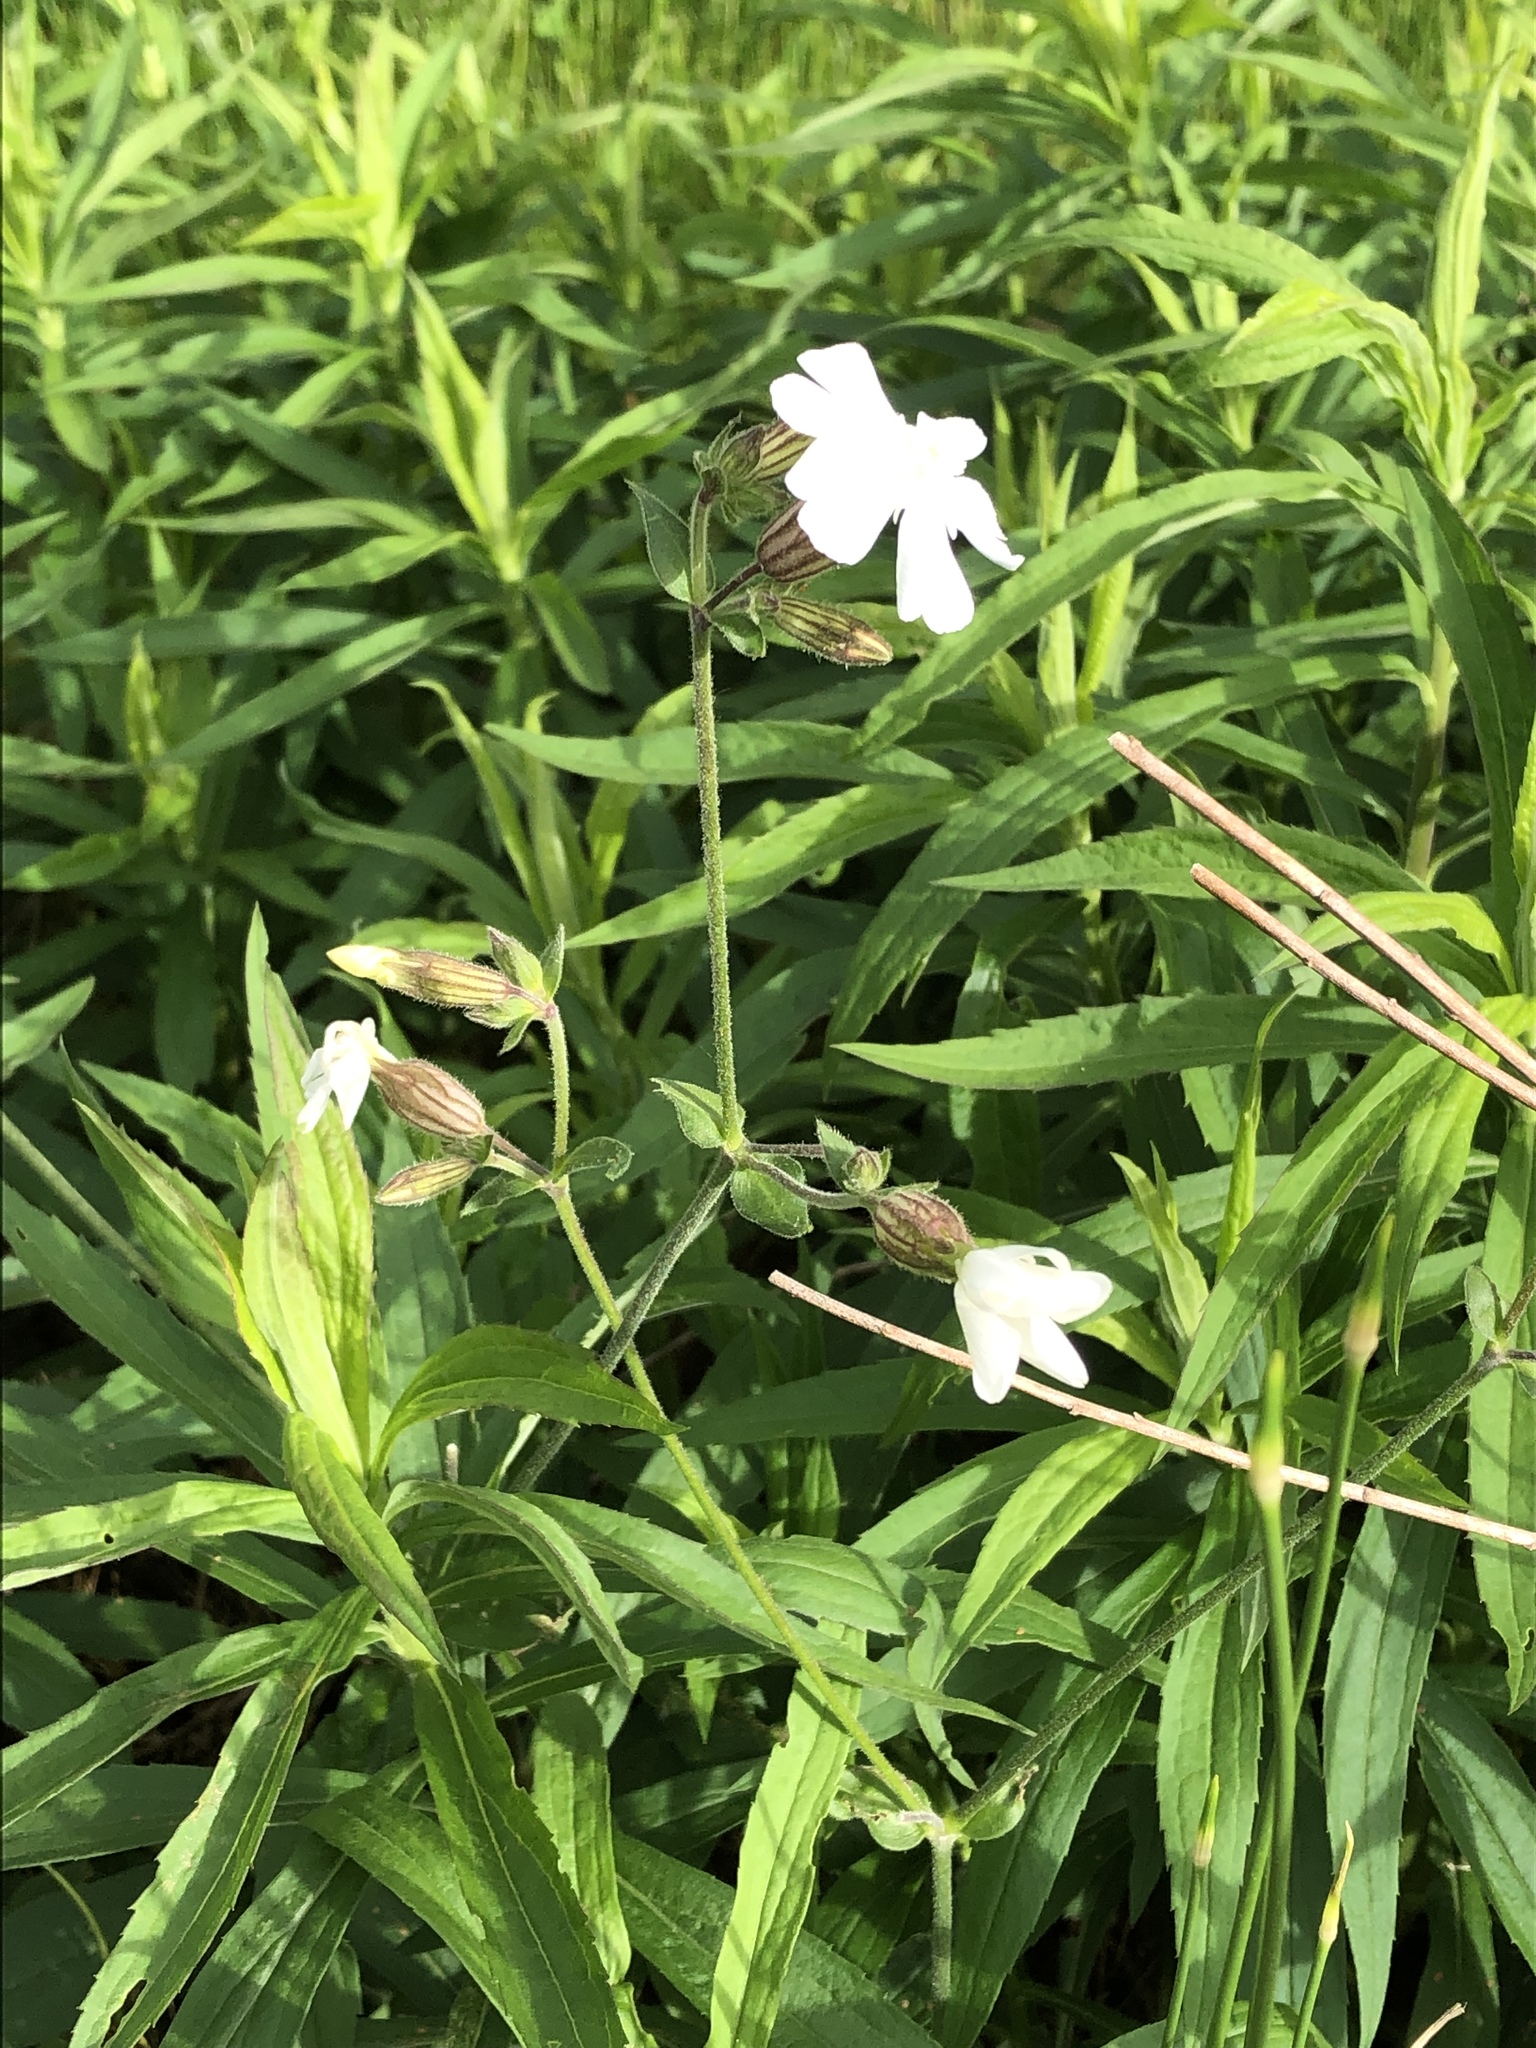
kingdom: Plantae
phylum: Tracheophyta
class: Magnoliopsida
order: Caryophyllales
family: Caryophyllaceae
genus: Silene
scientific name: Silene latifolia
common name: White campion
